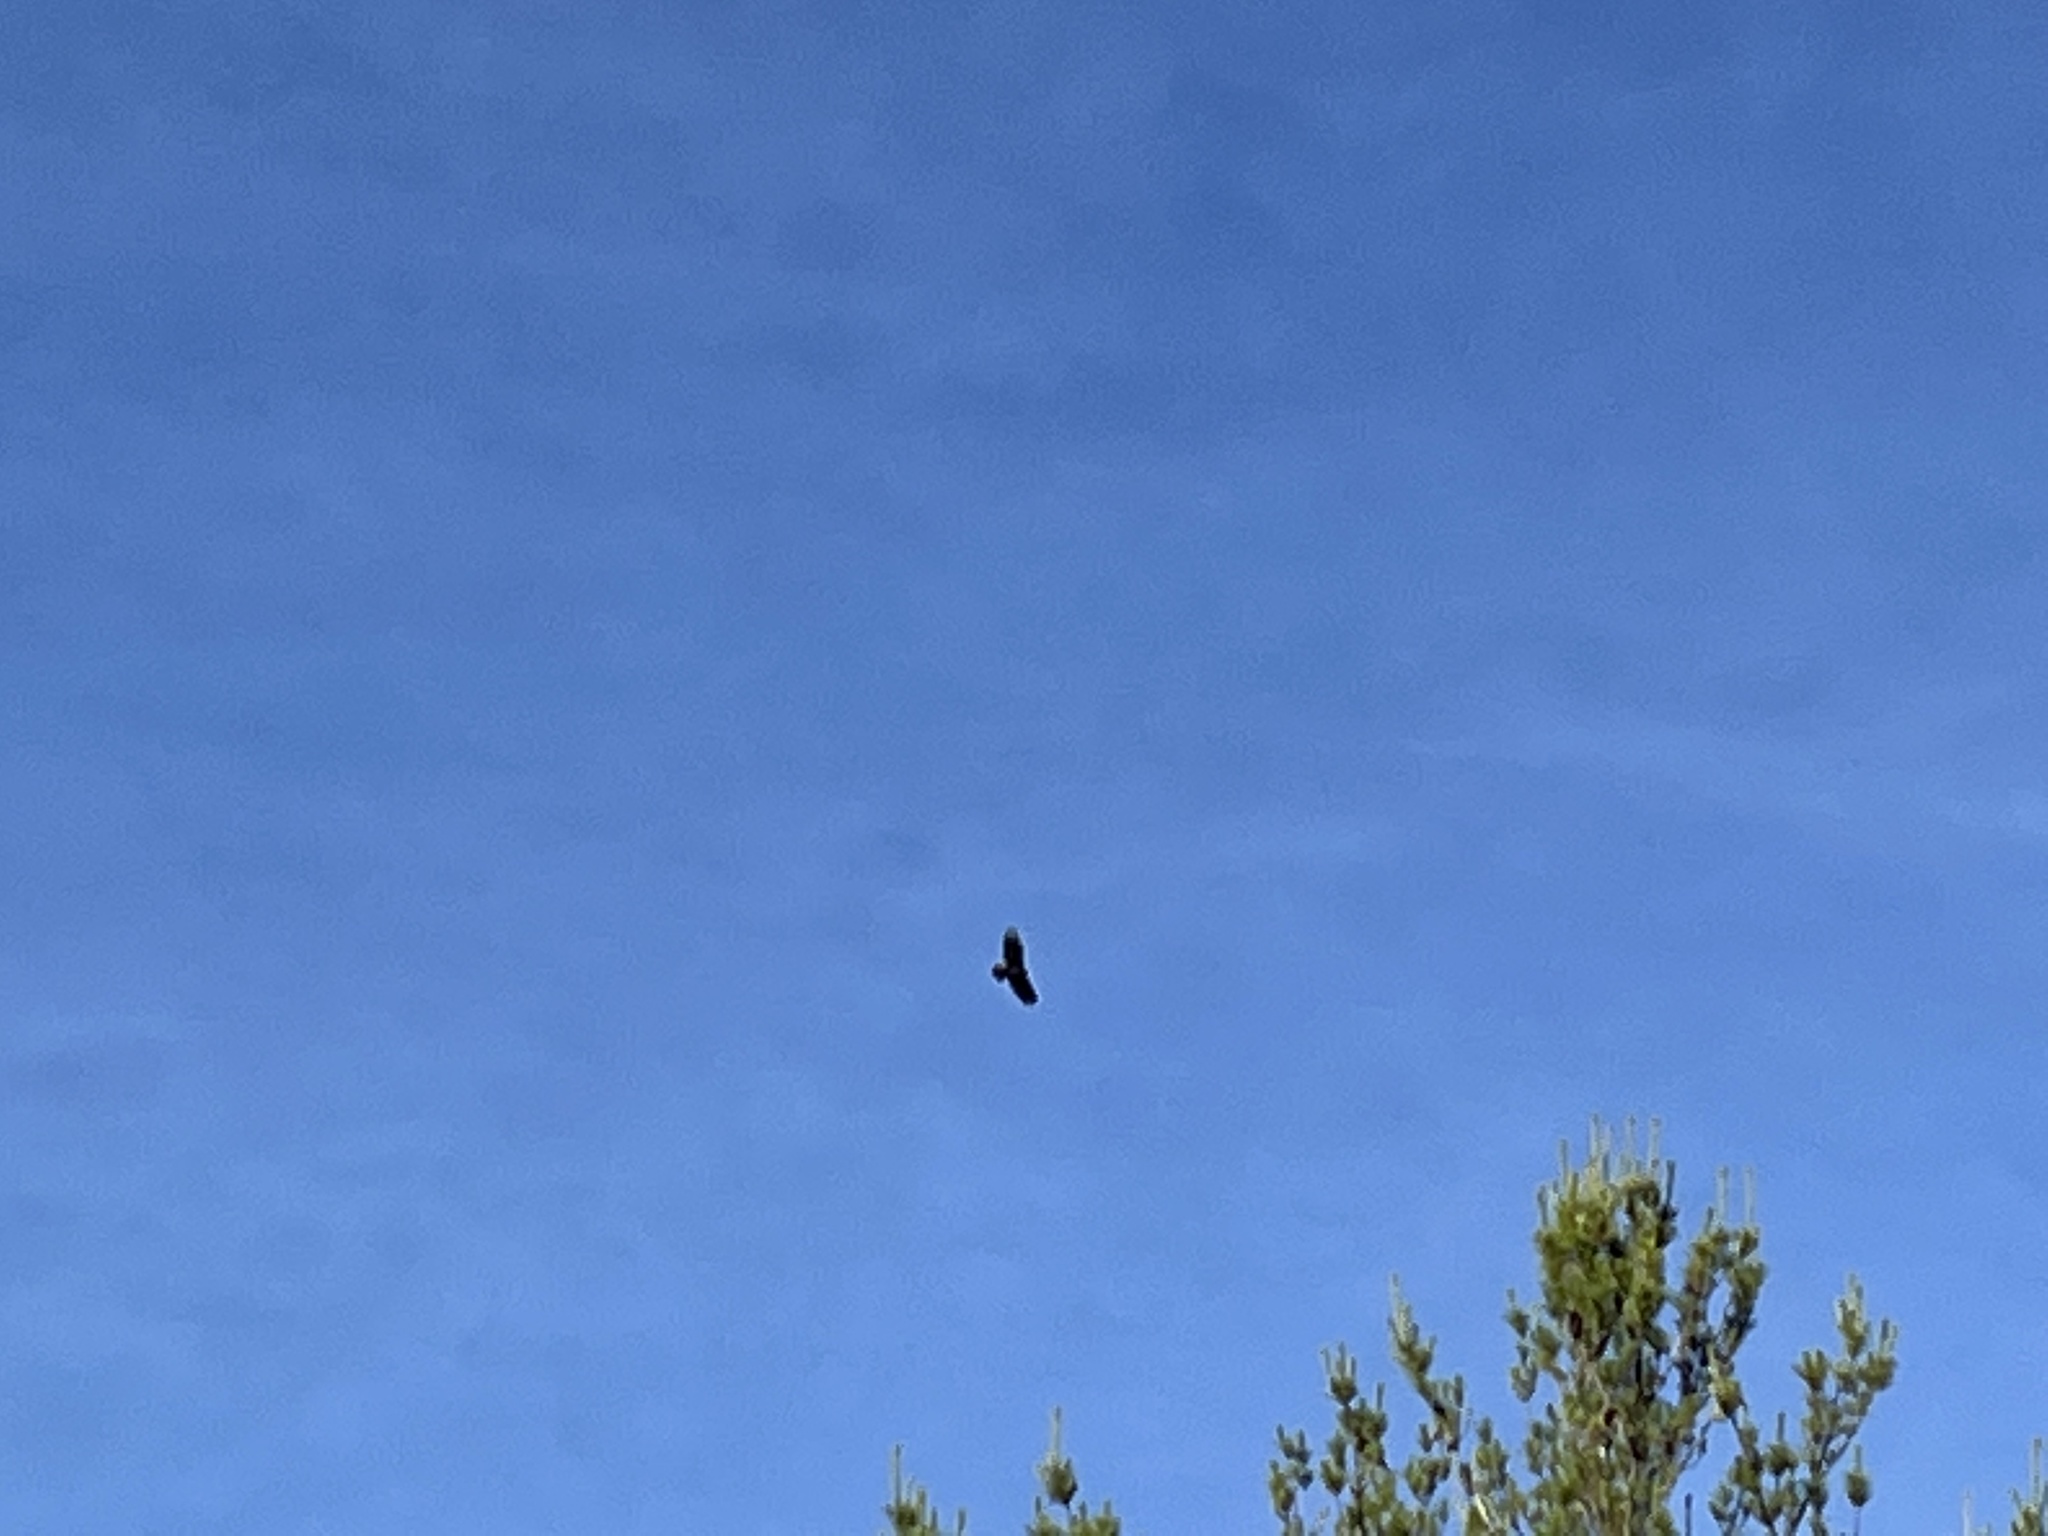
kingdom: Animalia
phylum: Chordata
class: Aves
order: Accipitriformes
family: Cathartidae
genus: Cathartes
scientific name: Cathartes aura
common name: Turkey vulture
